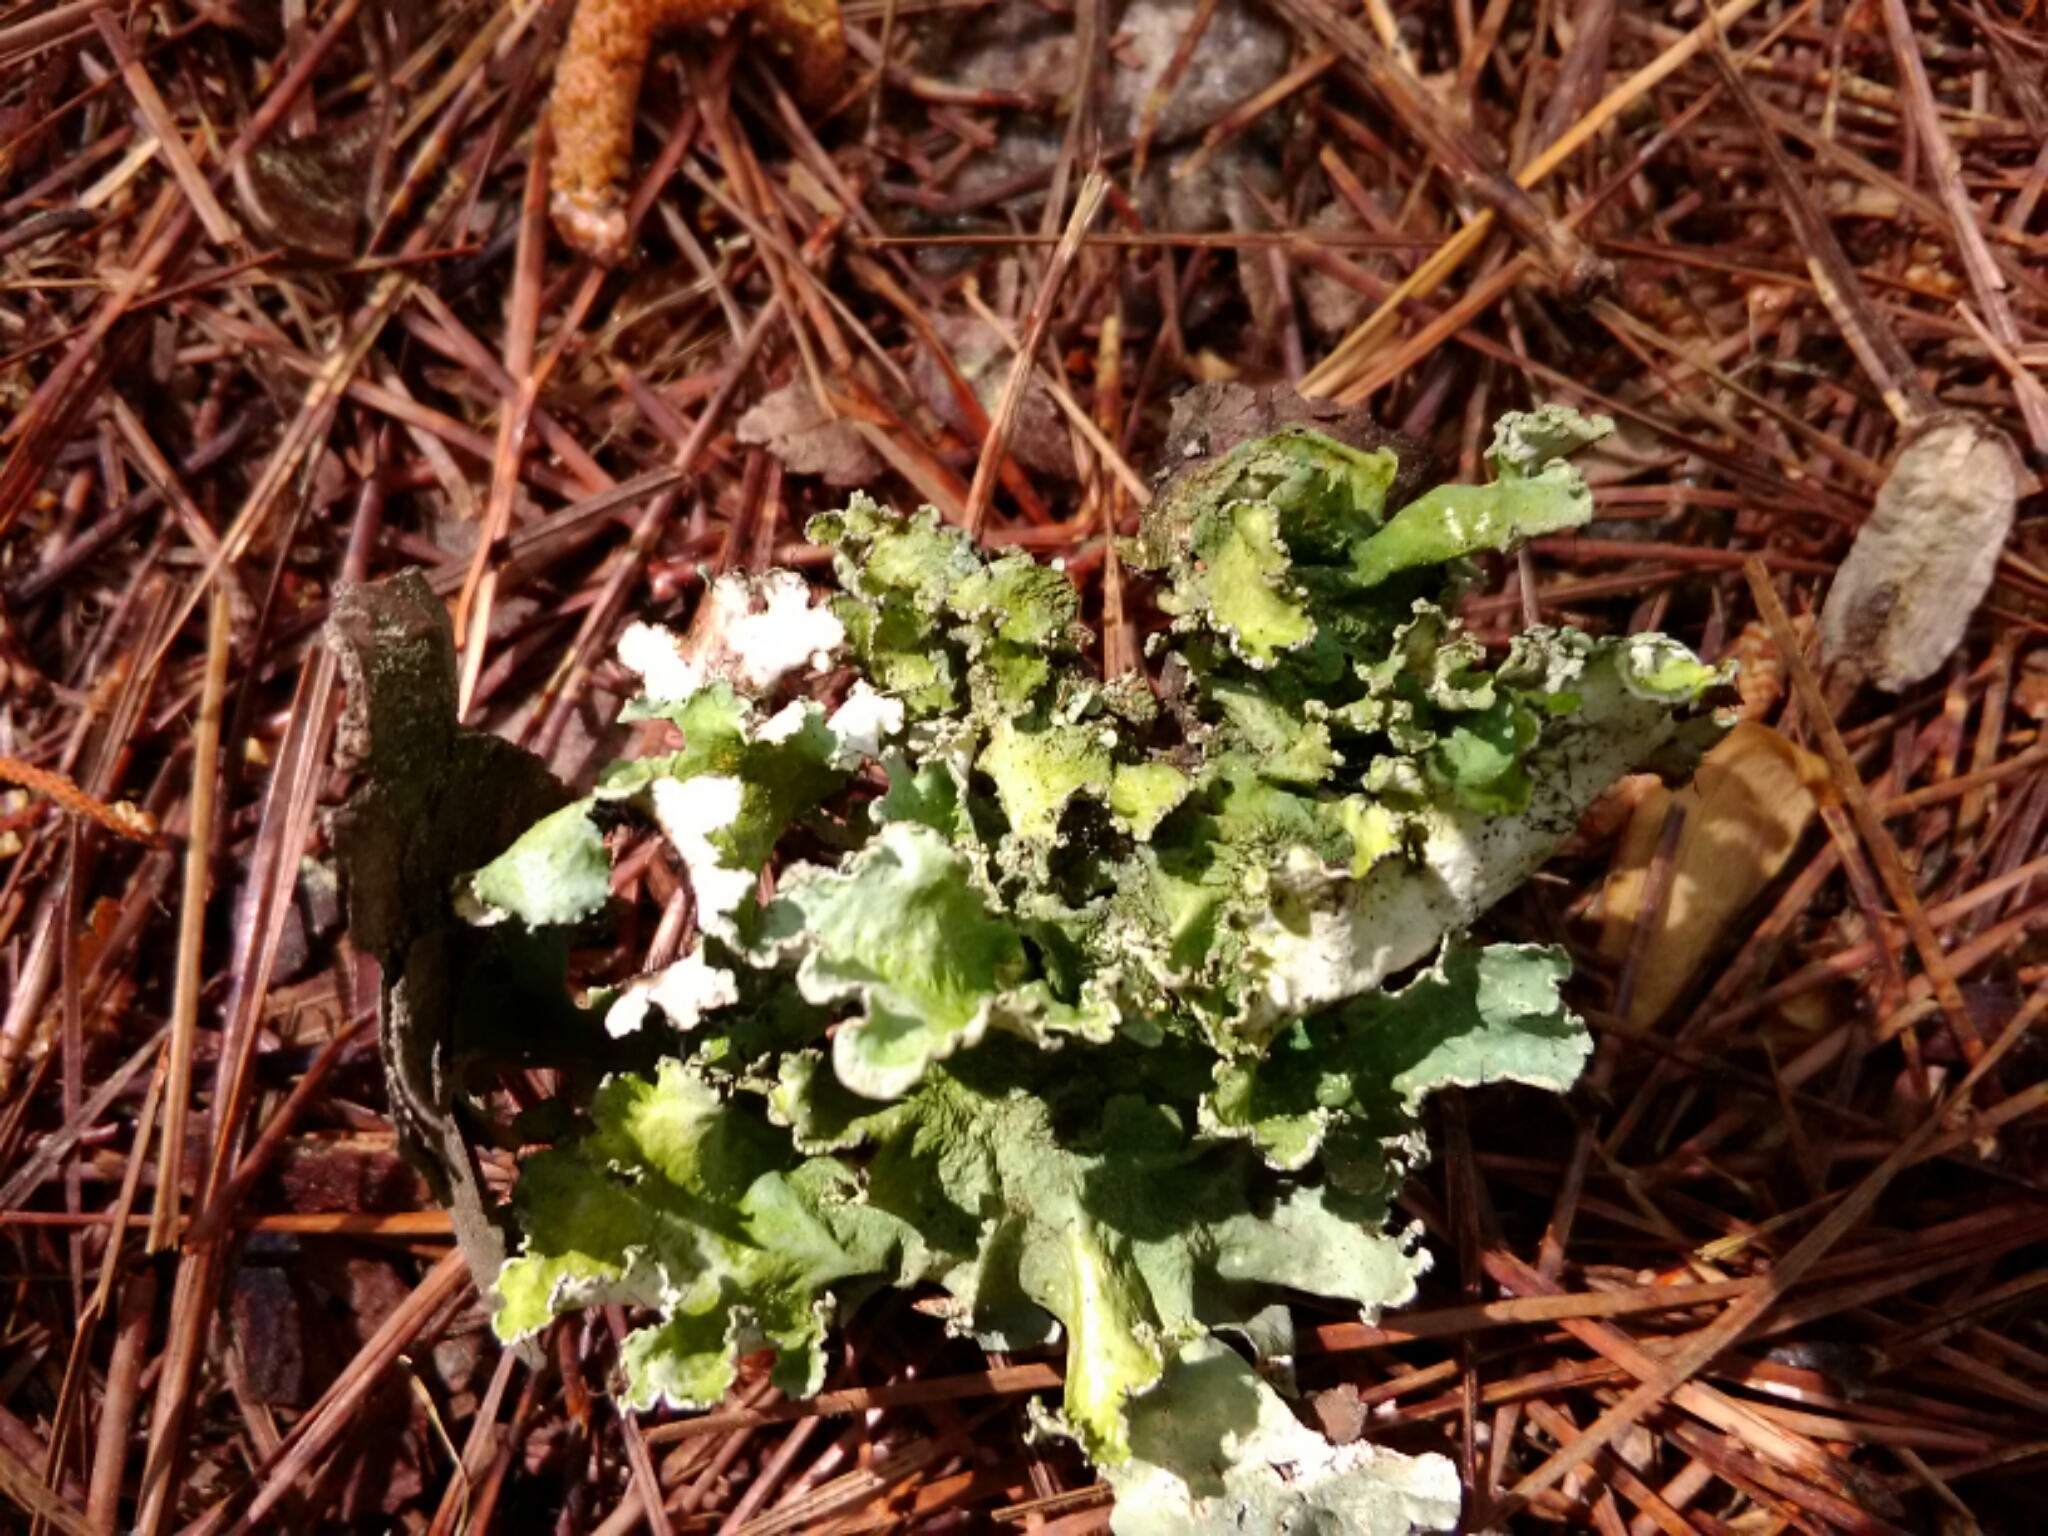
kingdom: Fungi
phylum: Ascomycota
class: Lecanoromycetes
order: Lecanorales
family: Parmeliaceae
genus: Parmotrema
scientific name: Parmotrema hypotropum
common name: Powdered ruffle lichen
